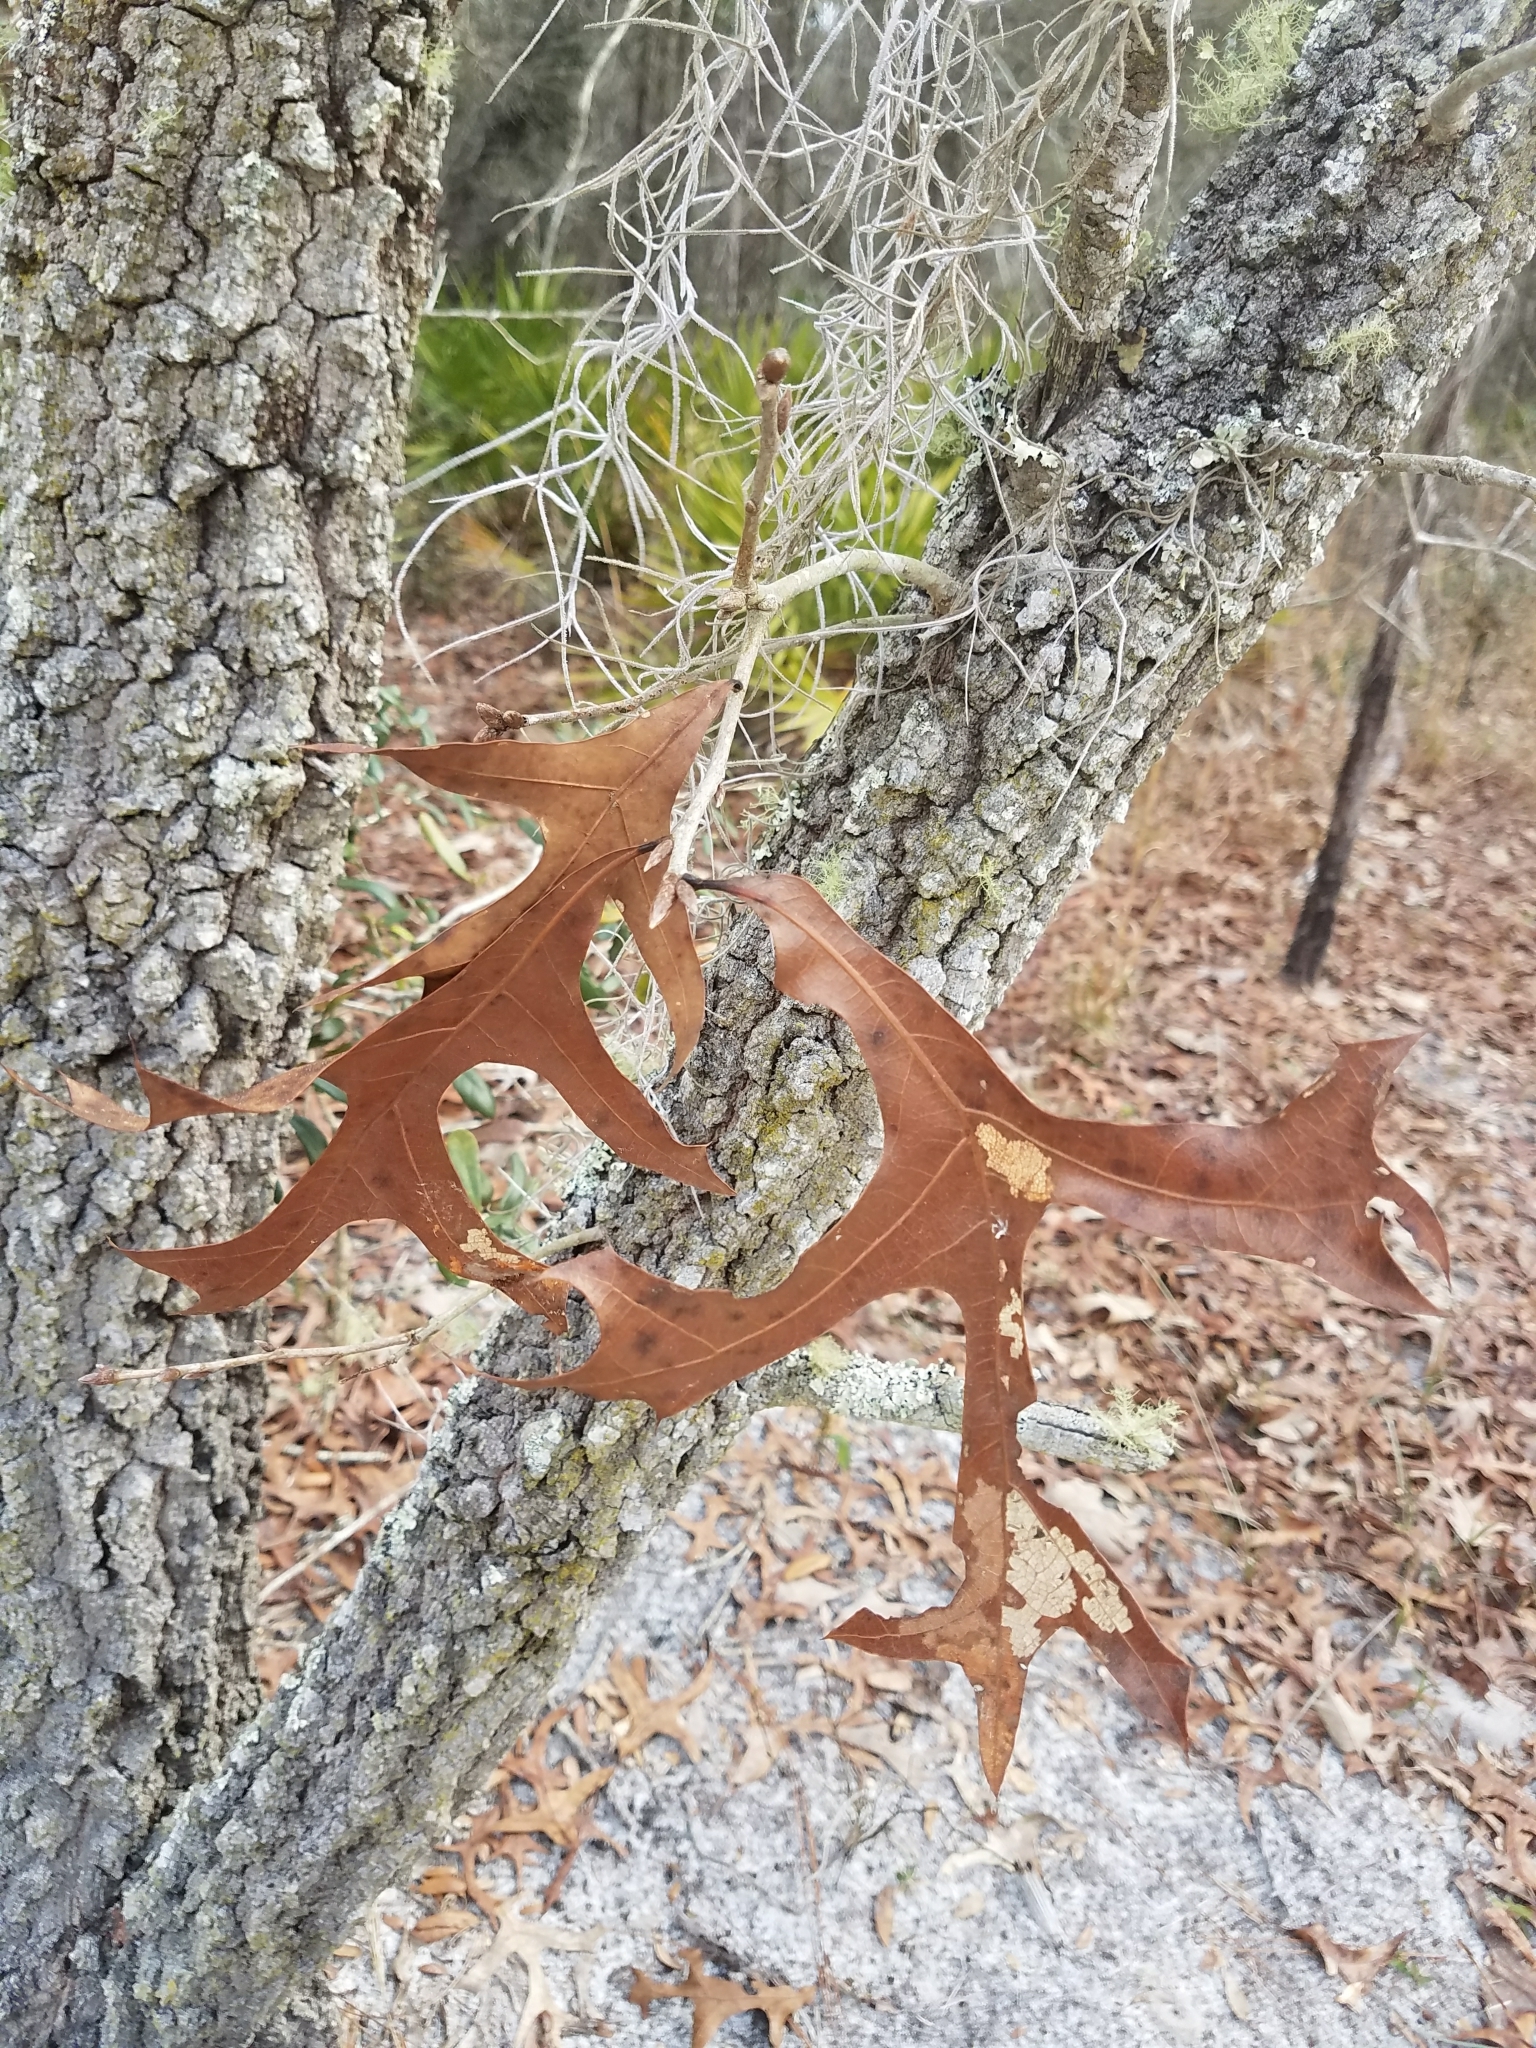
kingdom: Plantae
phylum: Tracheophyta
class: Magnoliopsida
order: Fagales
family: Fagaceae
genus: Quercus
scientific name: Quercus laevis
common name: Turkey oak
